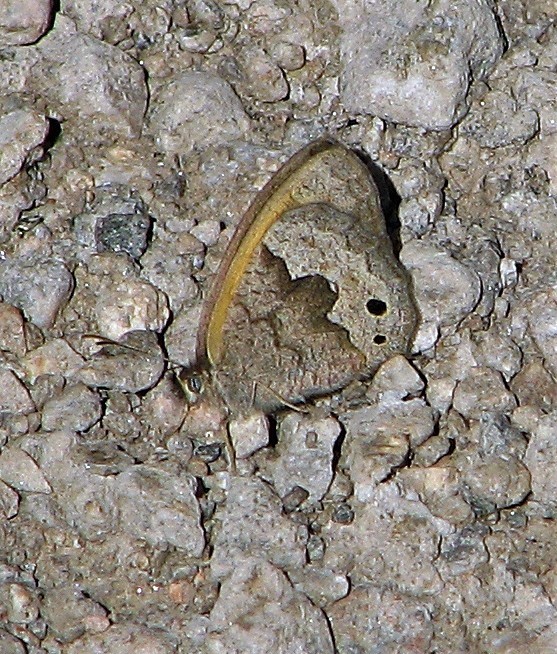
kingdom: Animalia
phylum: Arthropoda
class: Insecta
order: Lepidoptera
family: Nymphalidae
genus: Pharneuptychia
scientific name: Pharneuptychia phares
